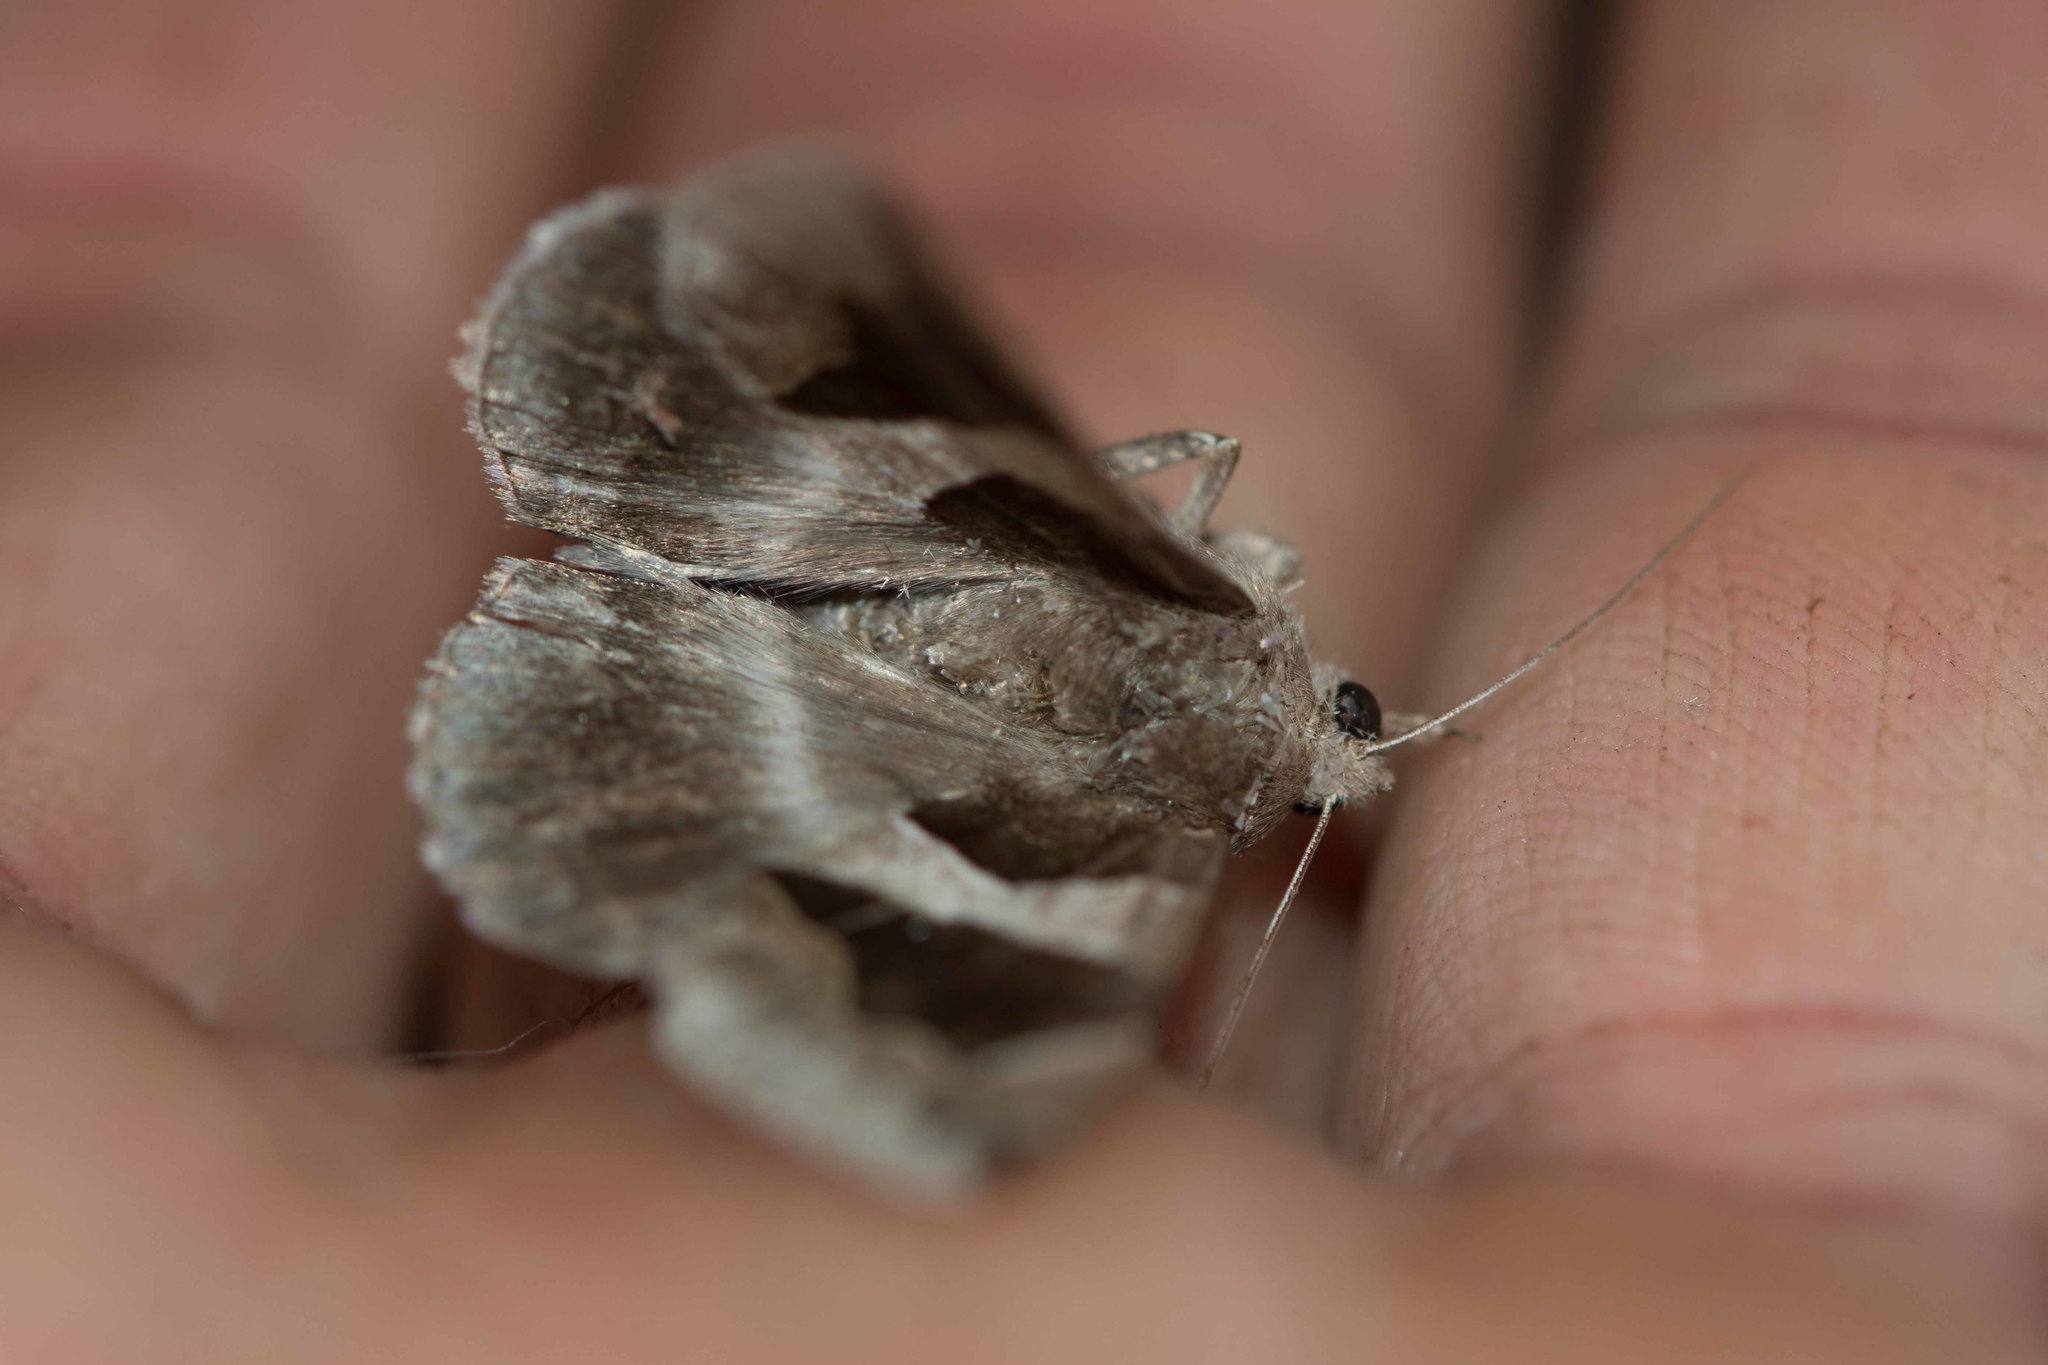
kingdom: Animalia
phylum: Arthropoda
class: Insecta
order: Lepidoptera
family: Erebidae
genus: Dysgonia
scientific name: Dysgonia algira
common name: Passenger
